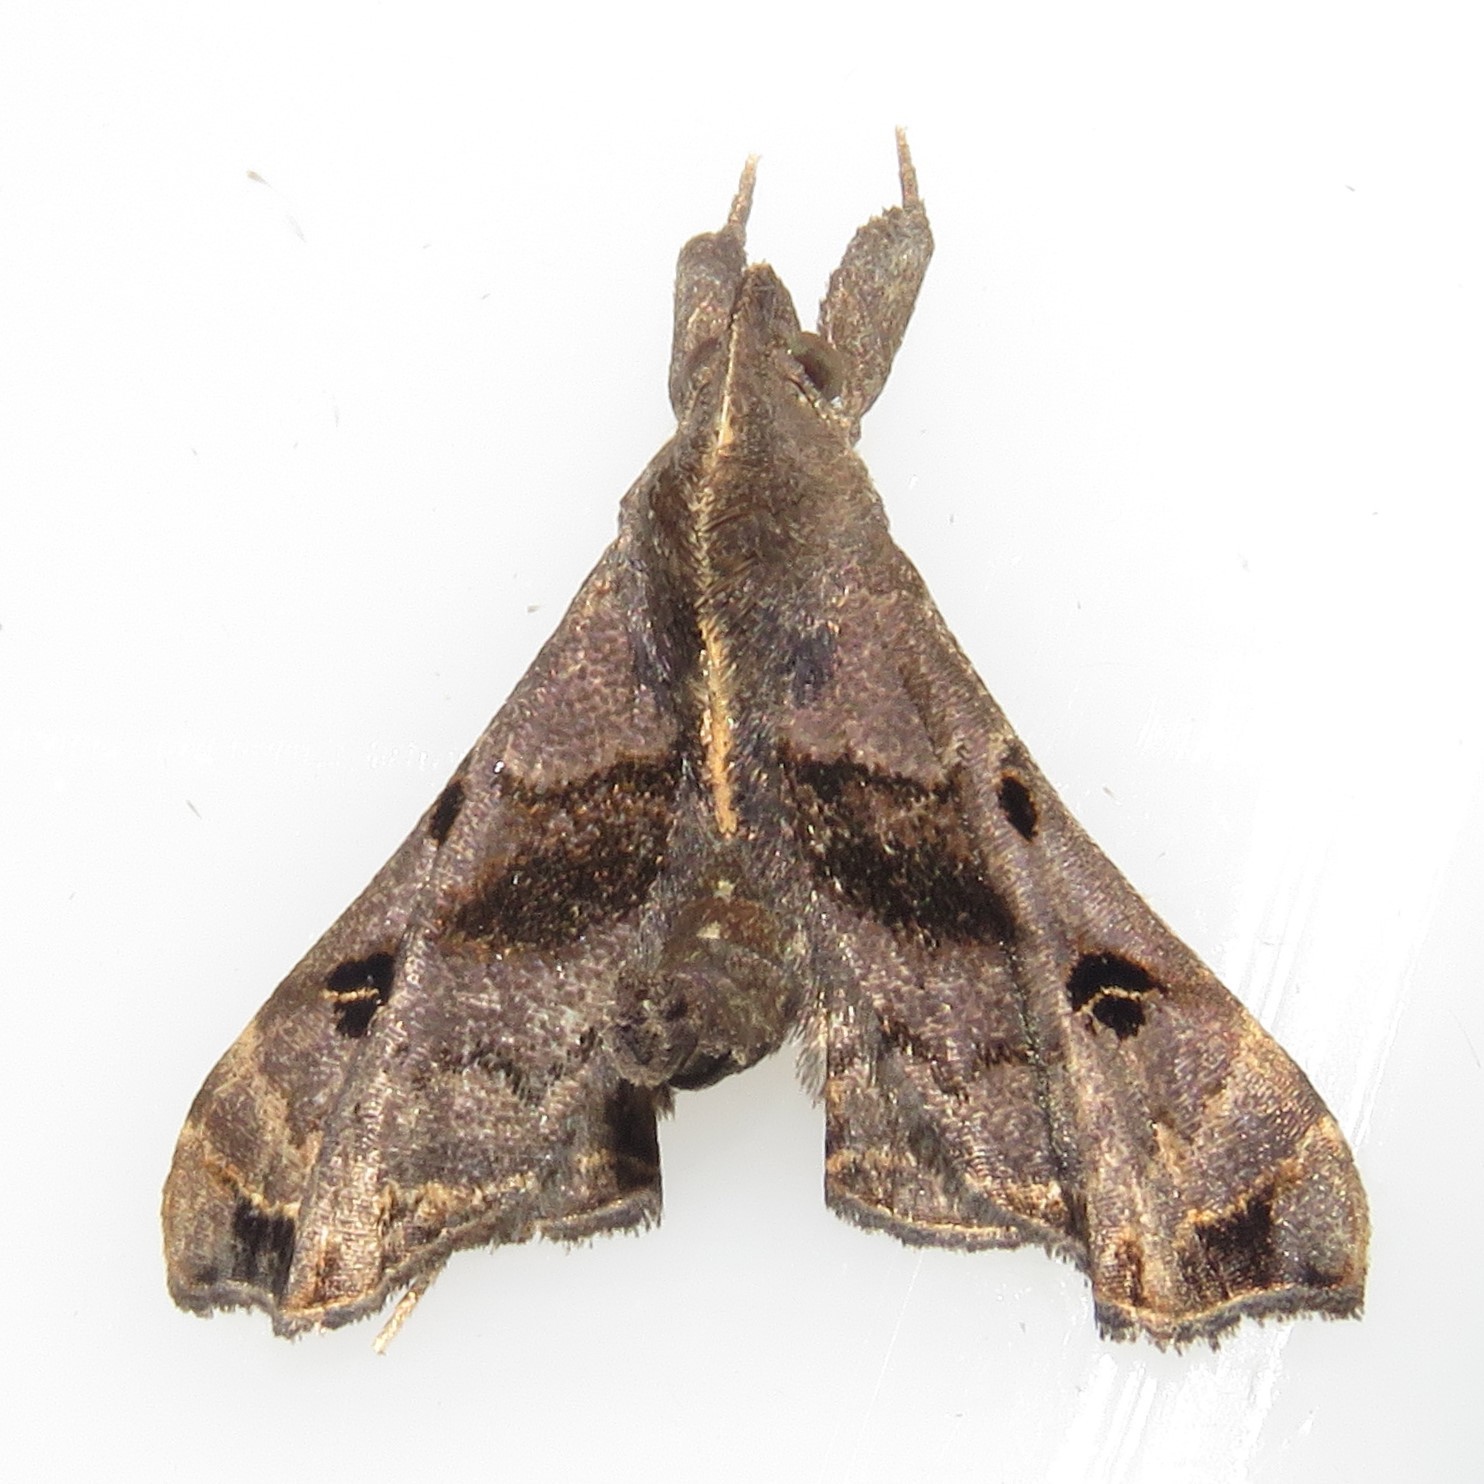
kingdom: Animalia
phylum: Arthropoda
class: Insecta
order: Lepidoptera
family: Erebidae
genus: Palthis
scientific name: Palthis asopialis
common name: Faint-spotted palthis moth
